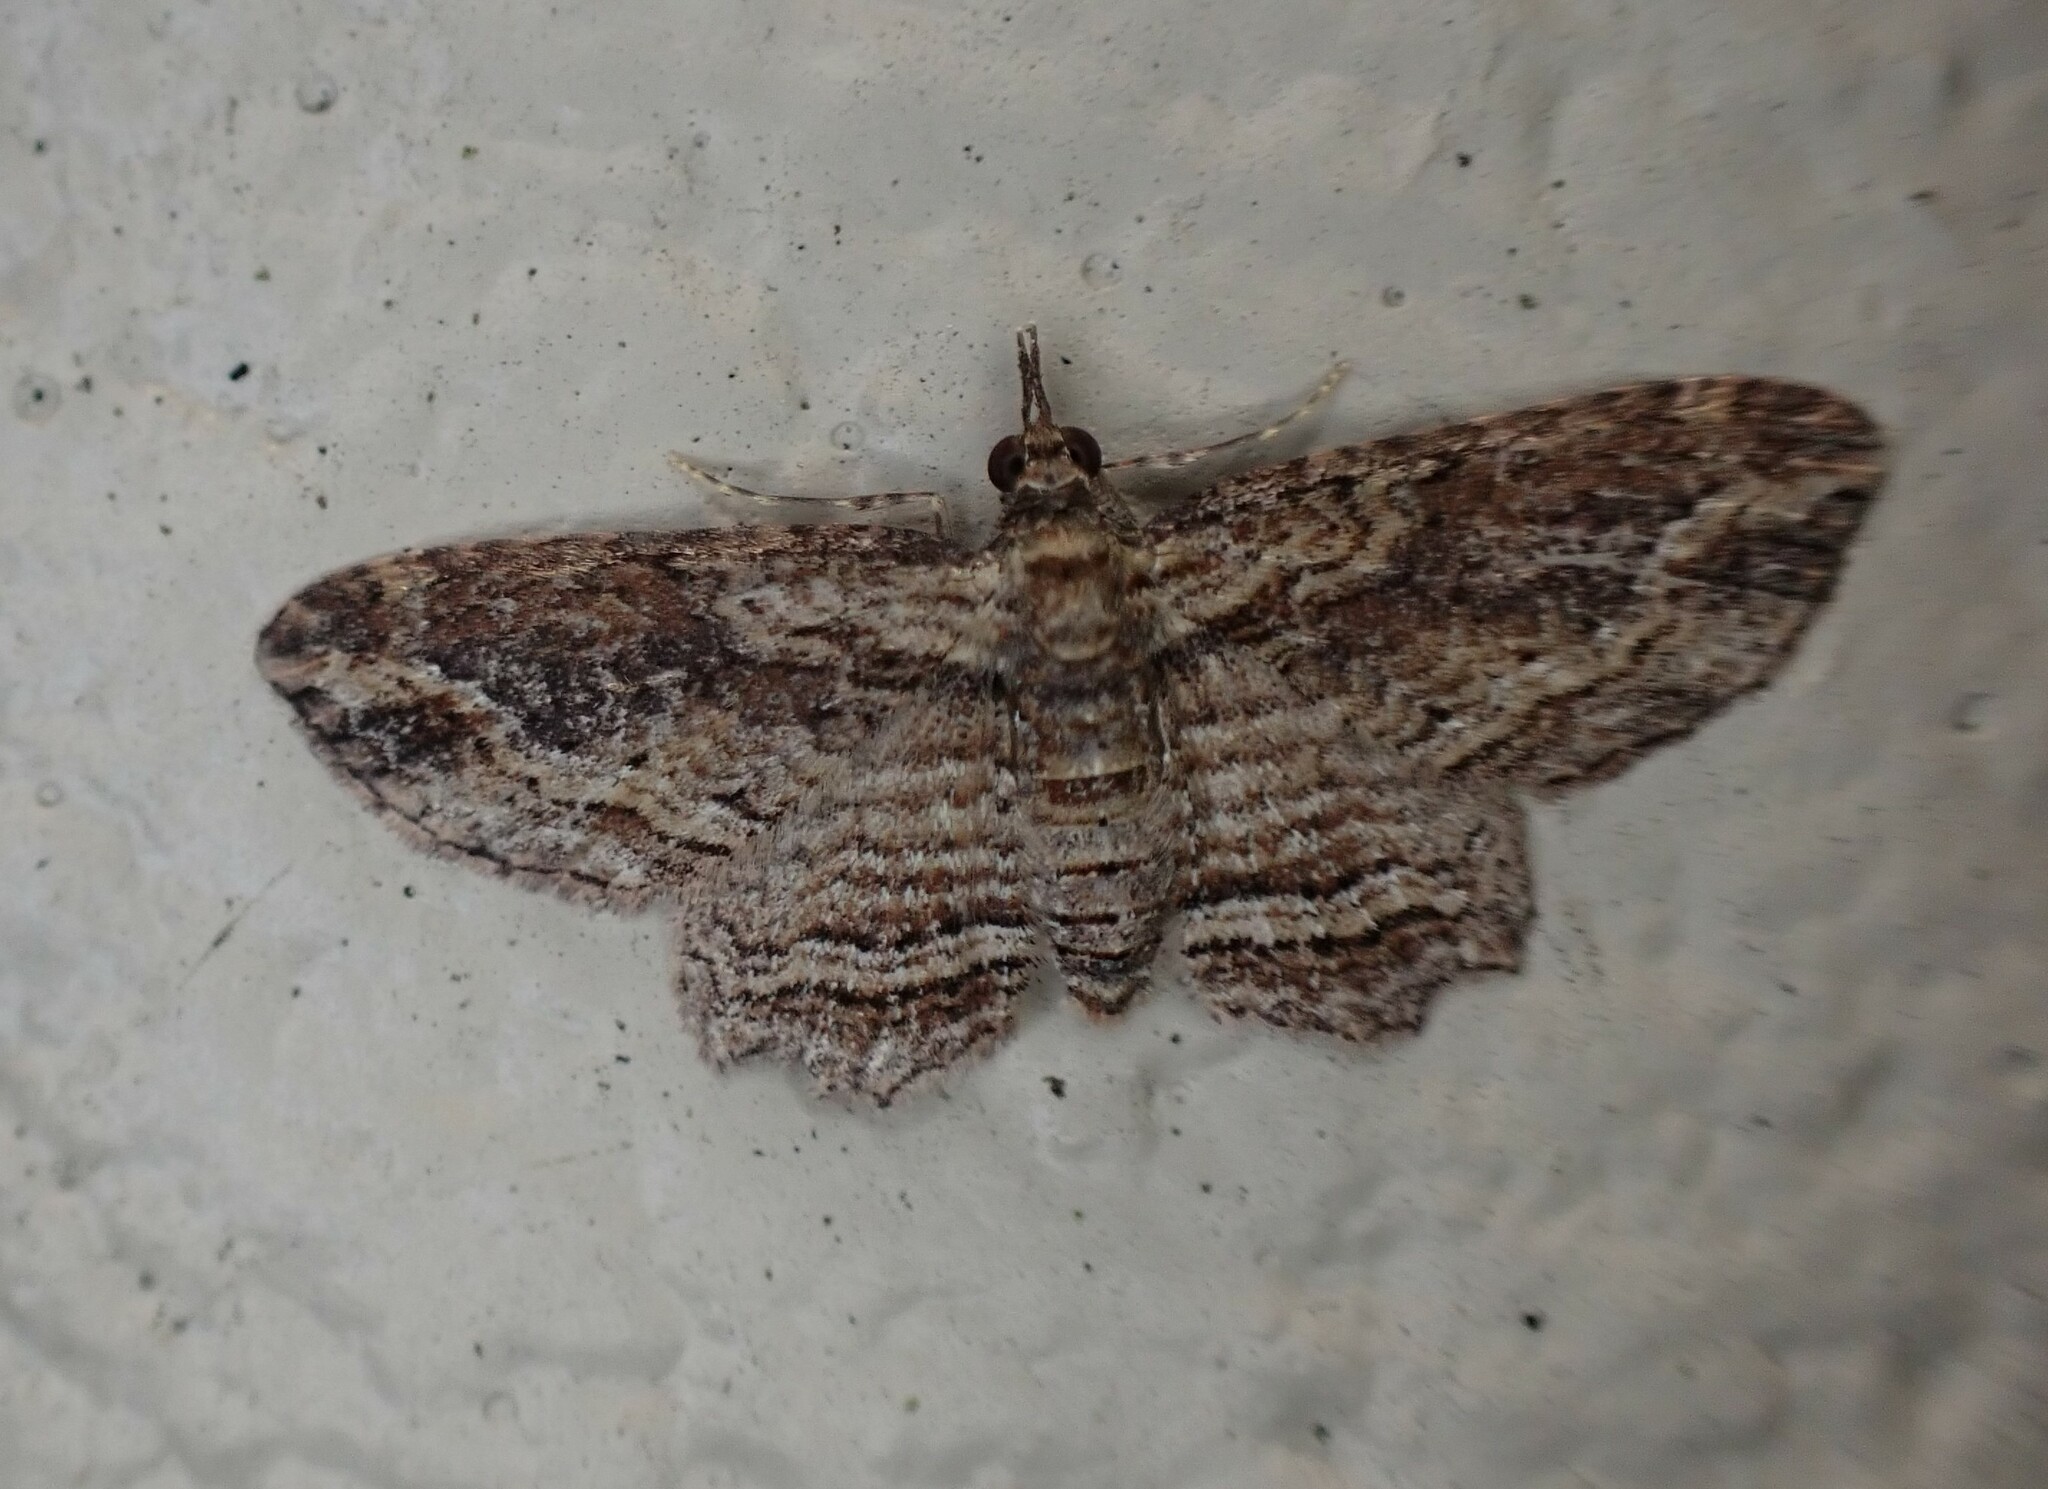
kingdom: Animalia
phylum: Arthropoda
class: Insecta
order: Lepidoptera
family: Geometridae
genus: Chloroclystis
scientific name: Chloroclystis filata
